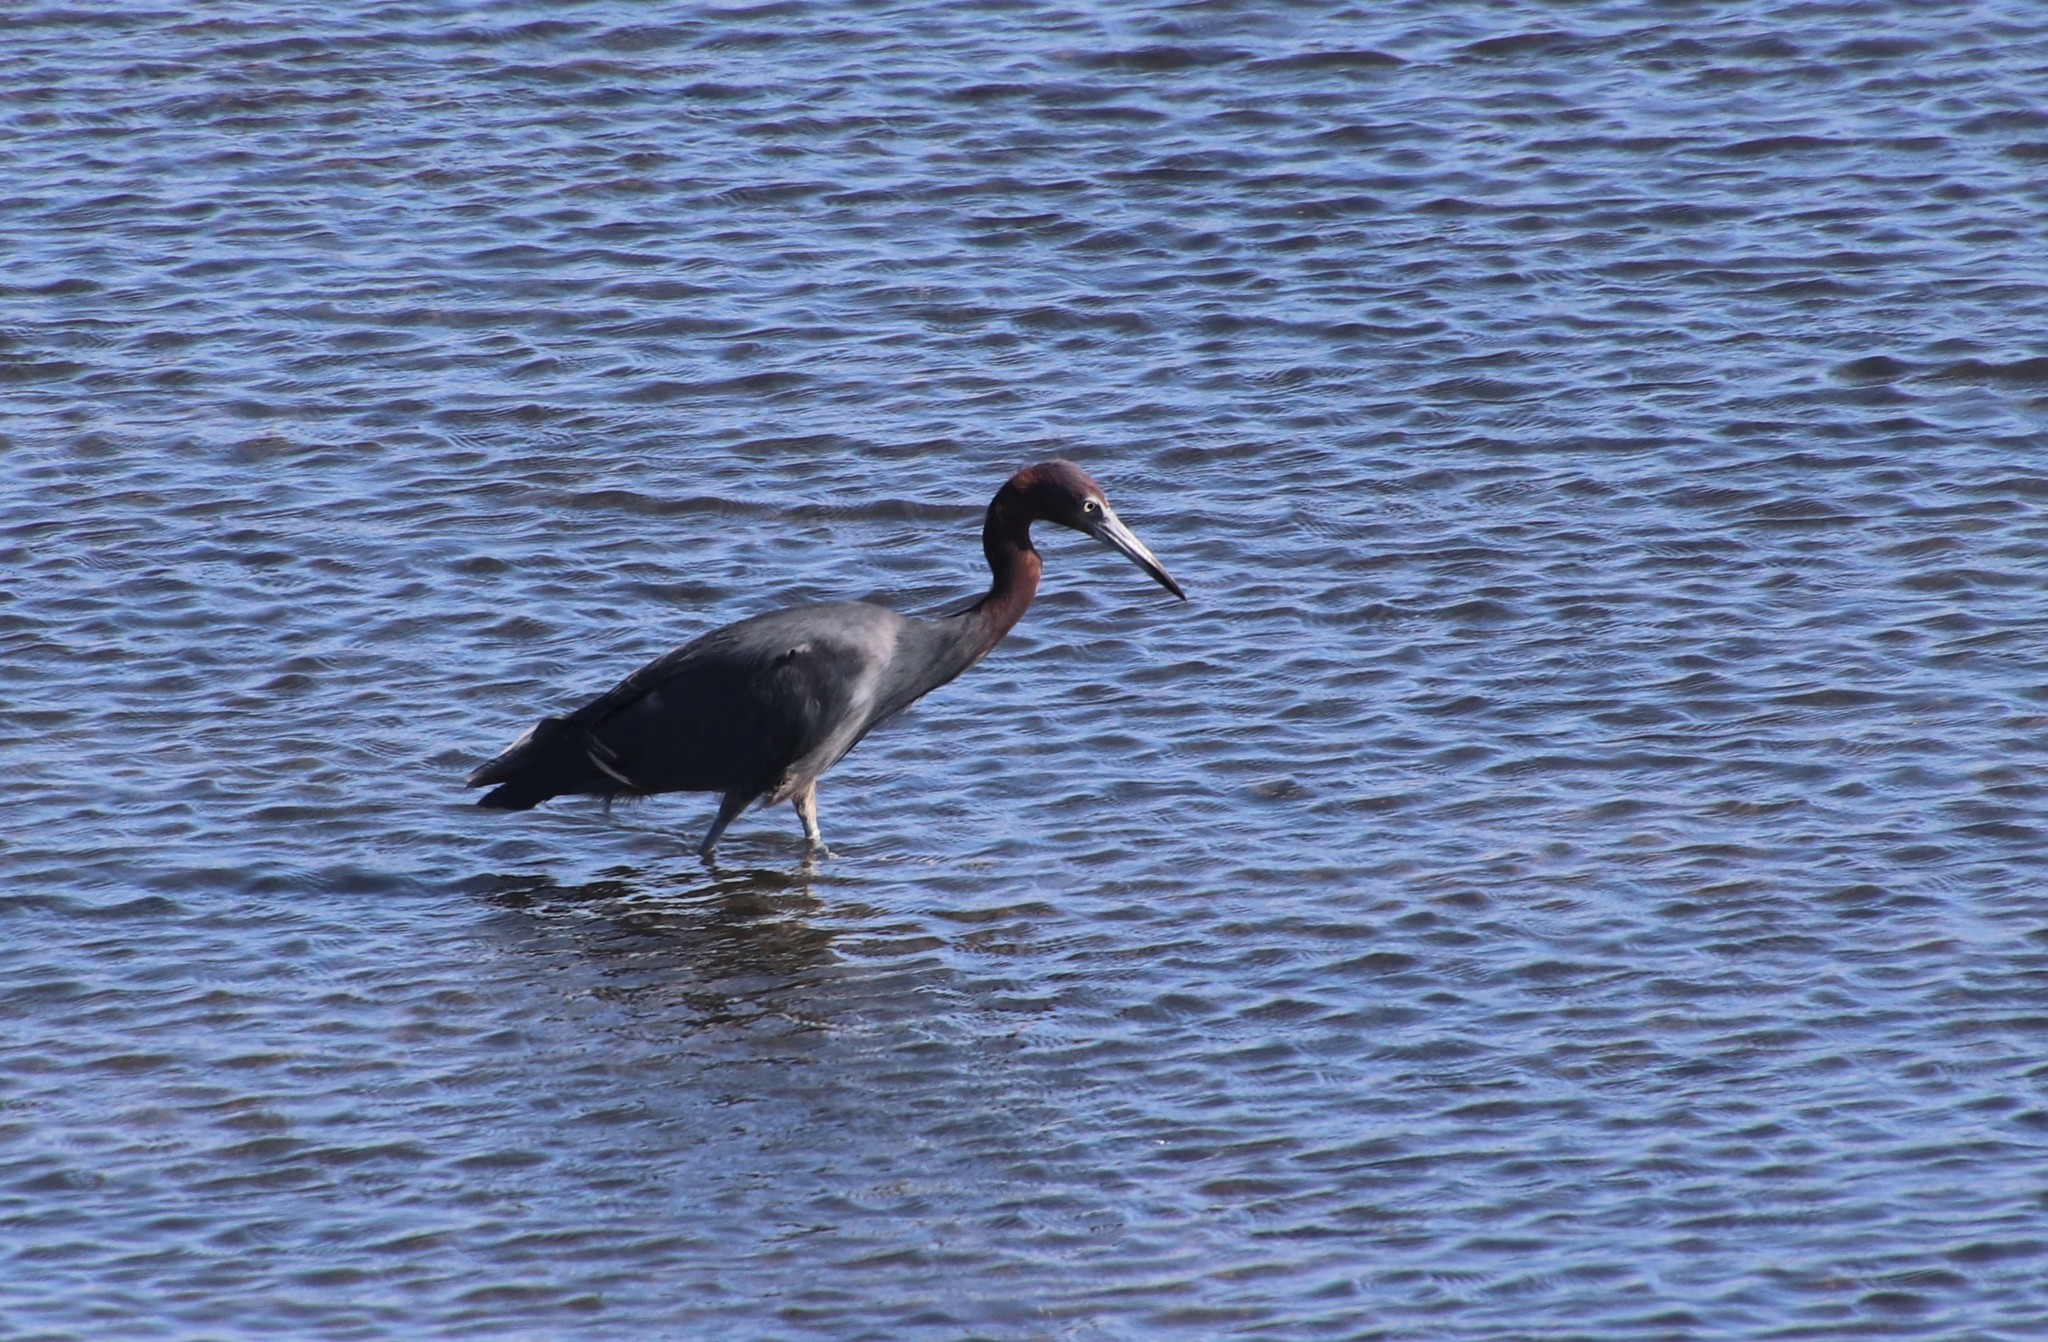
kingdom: Animalia
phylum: Chordata
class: Aves
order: Pelecaniformes
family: Ardeidae
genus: Egretta
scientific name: Egretta caerulea
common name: Little blue heron
